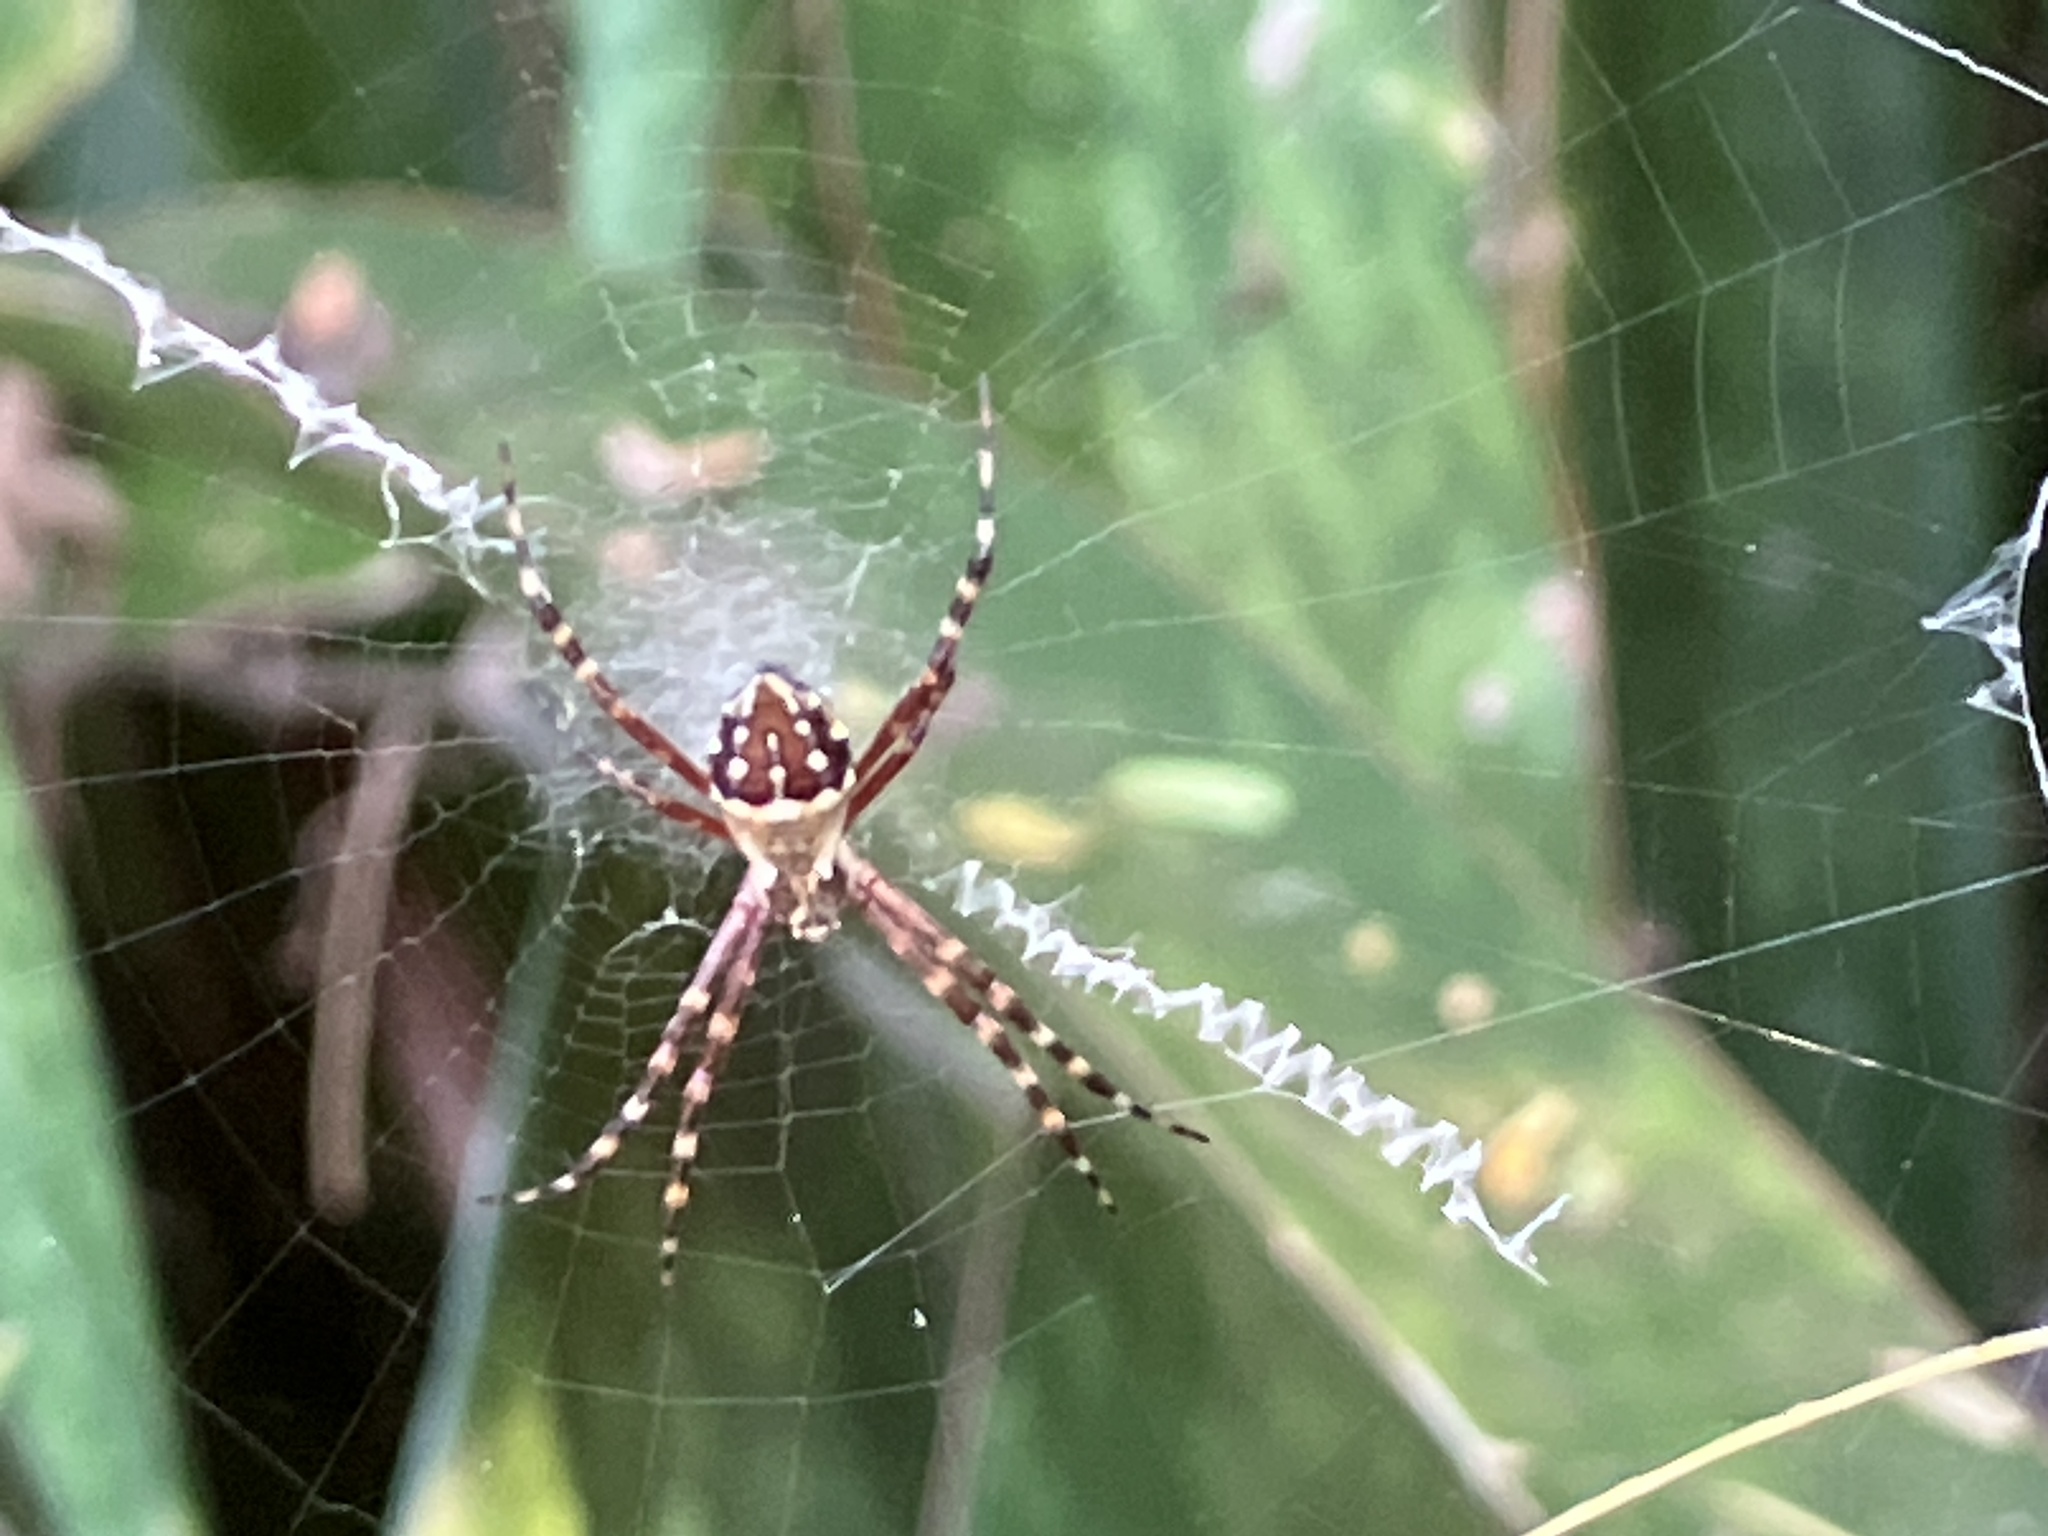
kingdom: Animalia
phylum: Arthropoda
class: Arachnida
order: Araneae
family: Araneidae
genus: Argiope
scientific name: Argiope argentata
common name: Orb weavers
